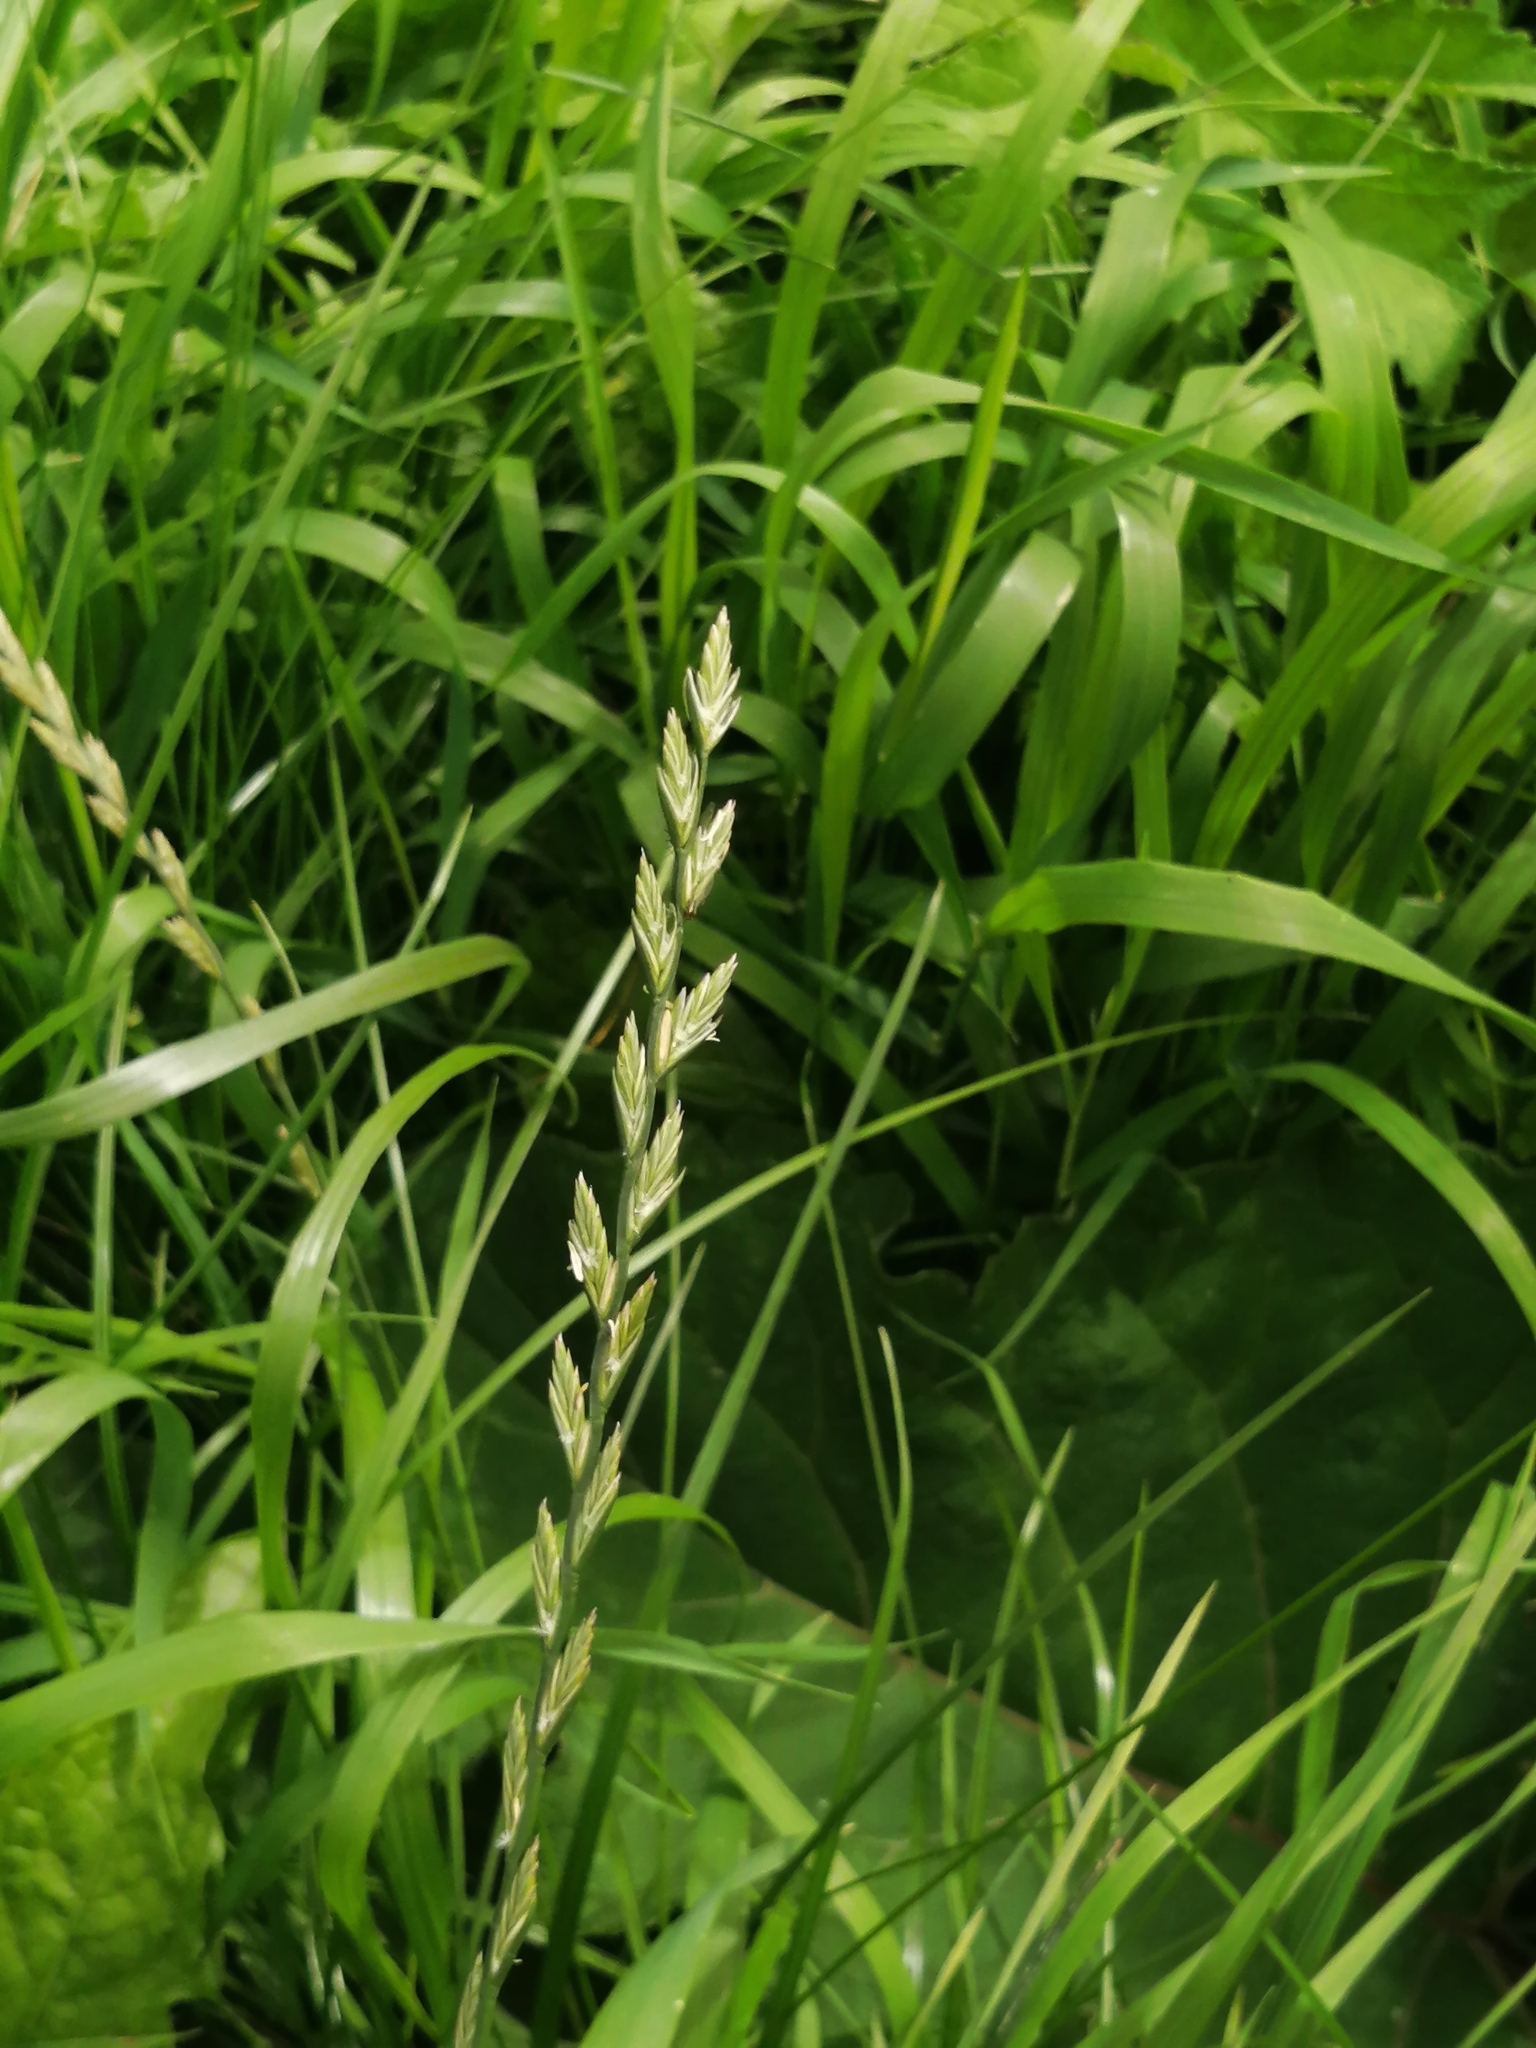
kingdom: Plantae
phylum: Tracheophyta
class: Liliopsida
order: Poales
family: Poaceae
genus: Elymus
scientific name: Elymus repens
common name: Quackgrass
